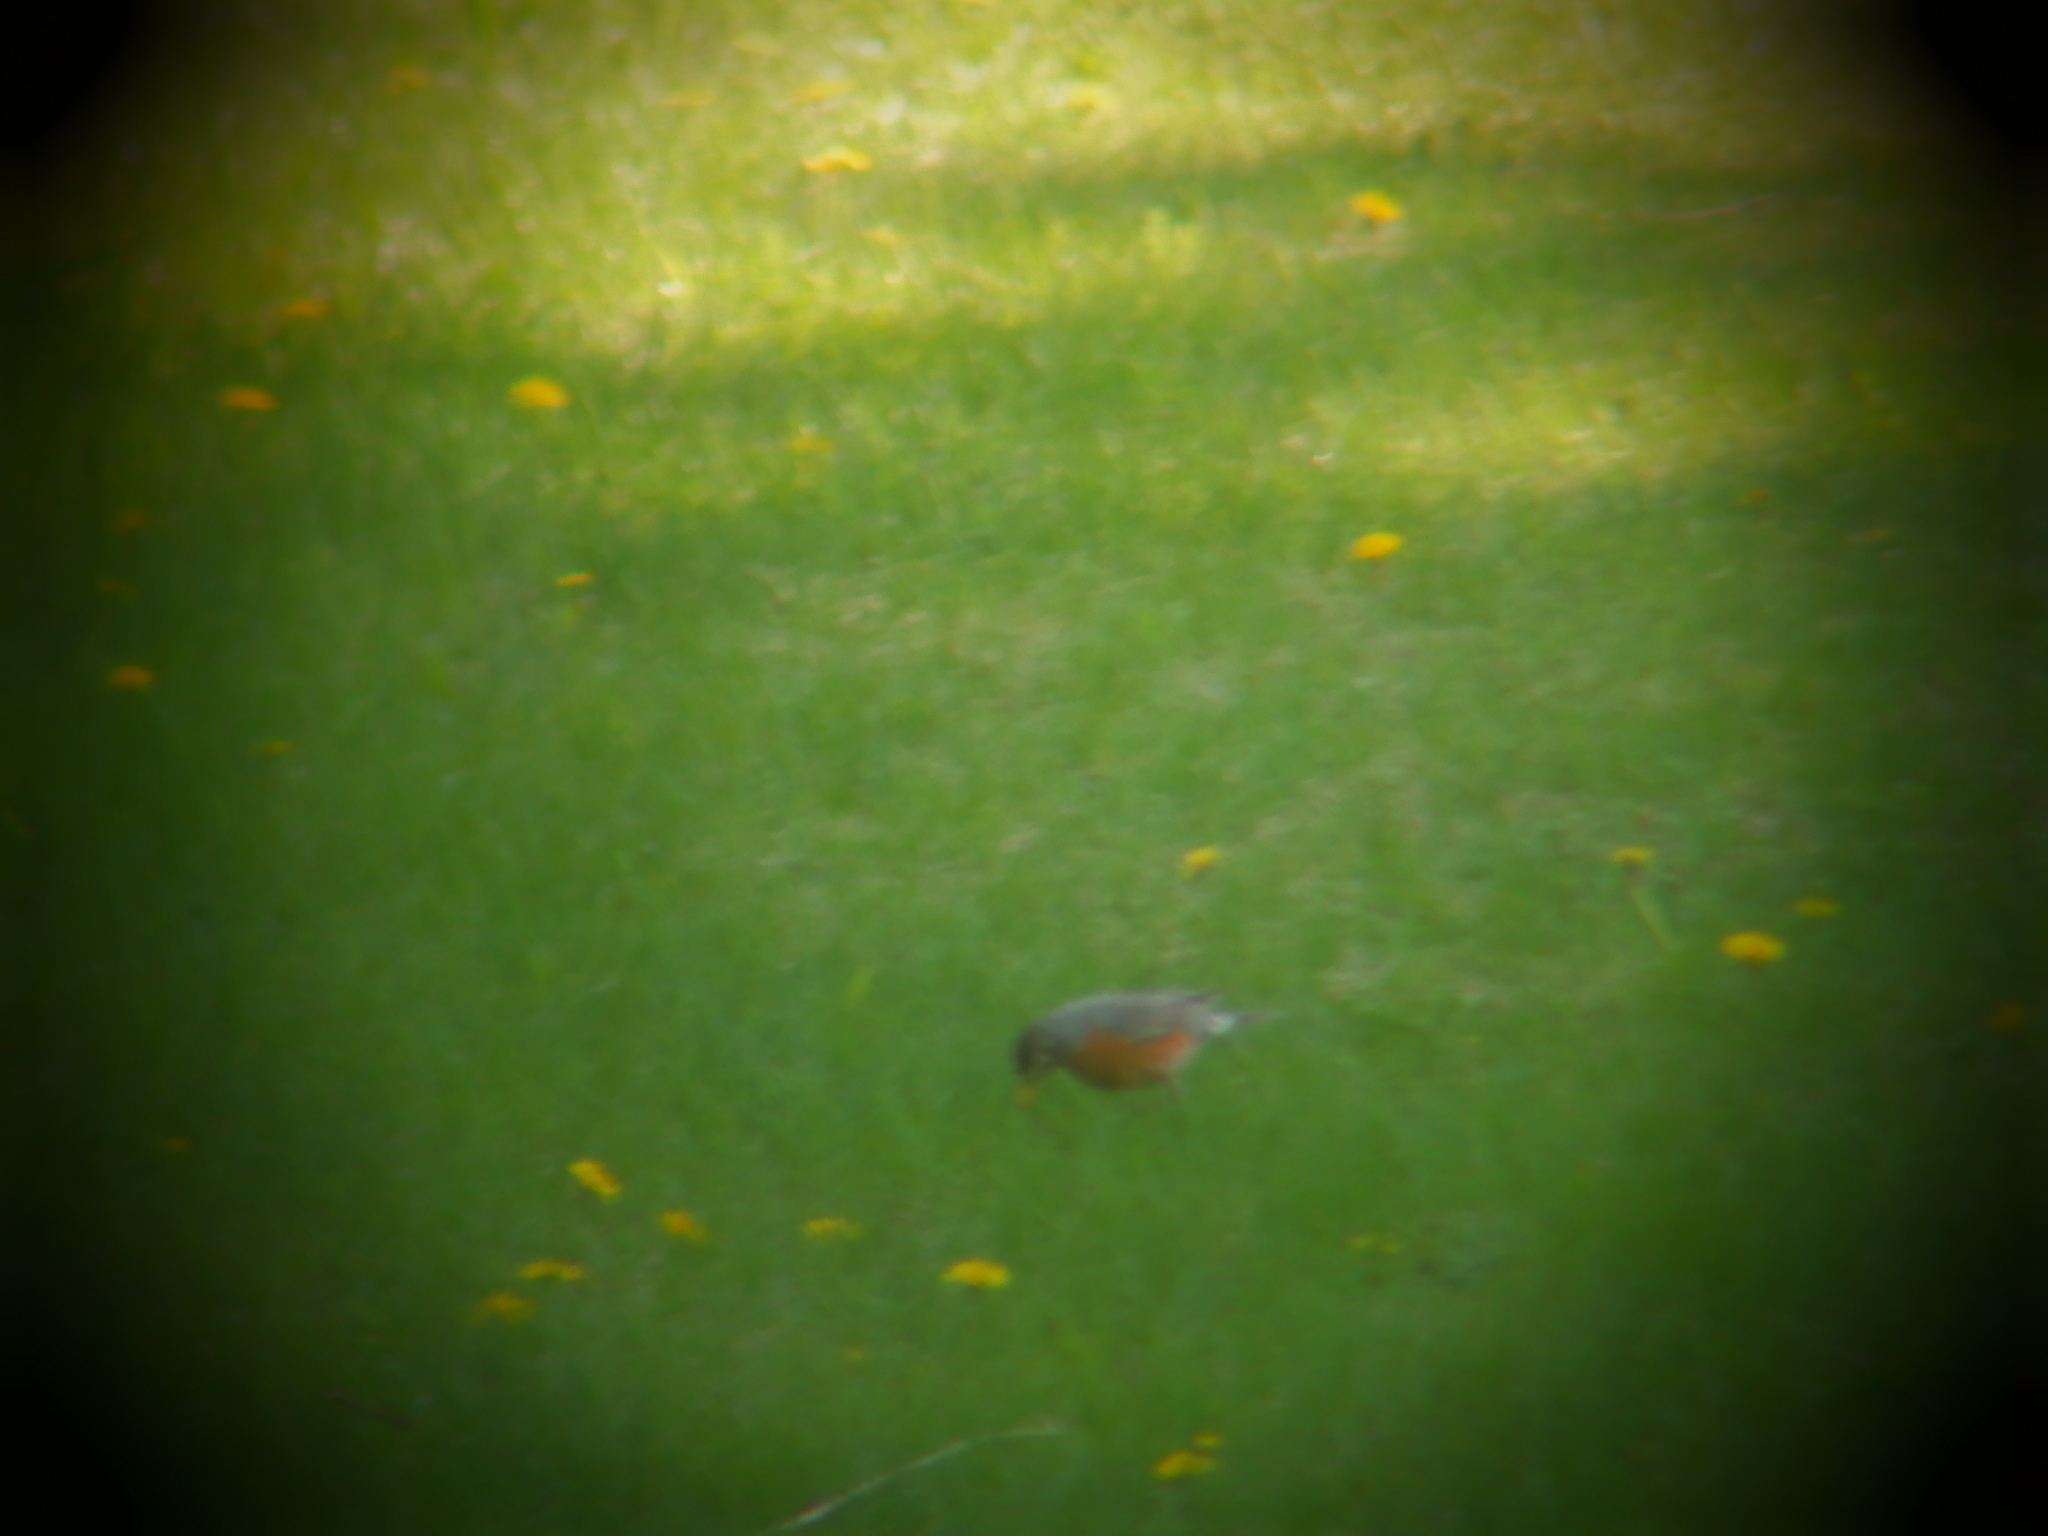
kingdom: Animalia
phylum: Chordata
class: Aves
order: Passeriformes
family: Turdidae
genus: Turdus
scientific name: Turdus migratorius
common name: American robin
